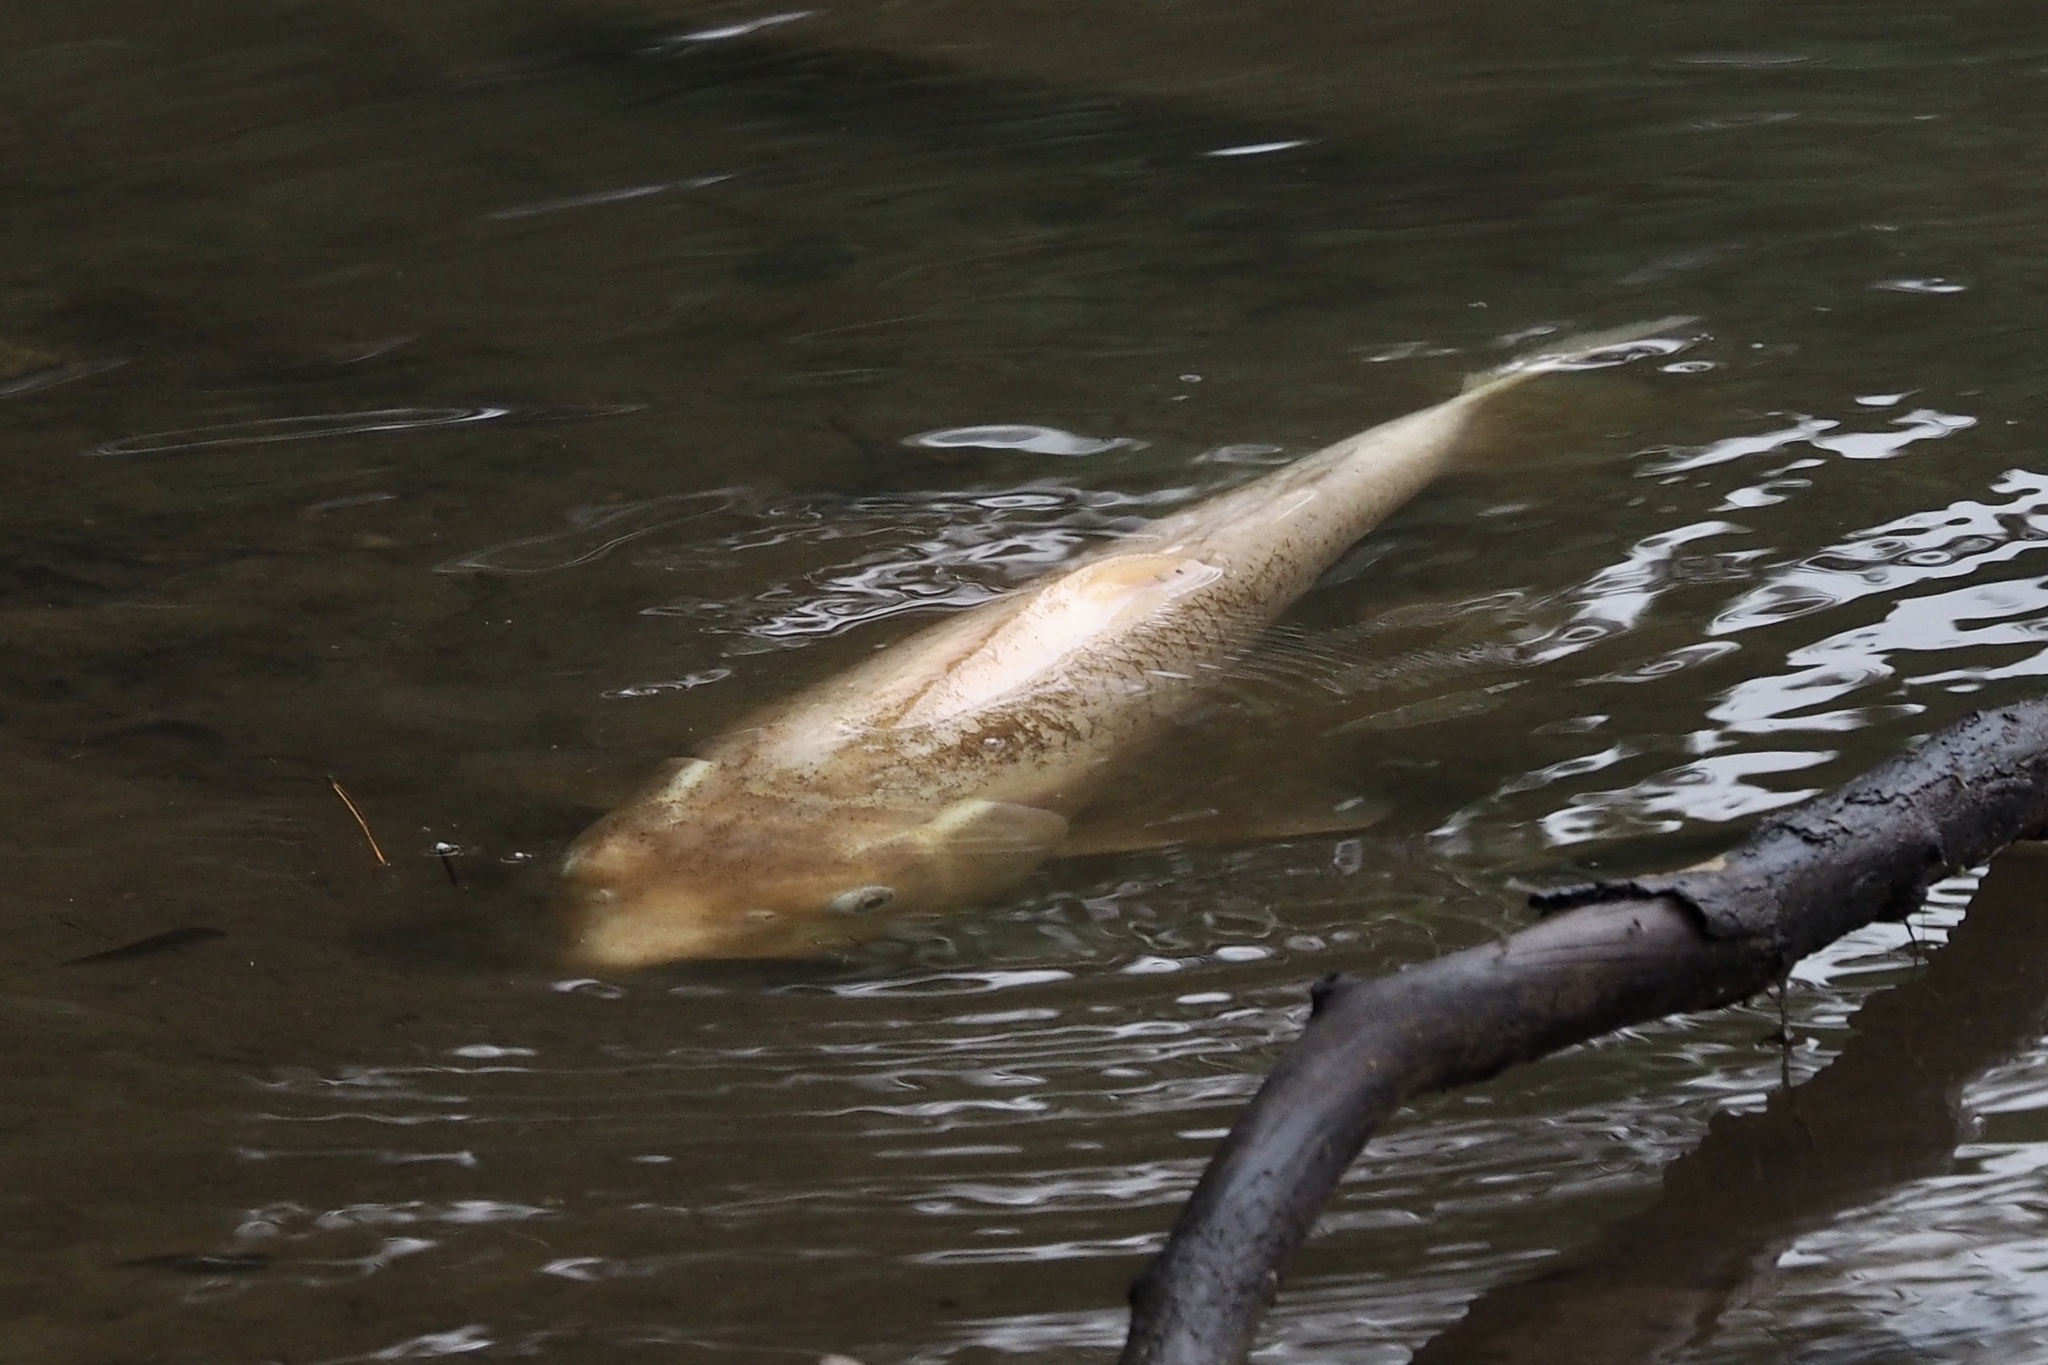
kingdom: Animalia
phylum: Chordata
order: Cypriniformes
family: Cyprinidae
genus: Cyprinus
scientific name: Cyprinus rubrofuscus
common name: Koi
